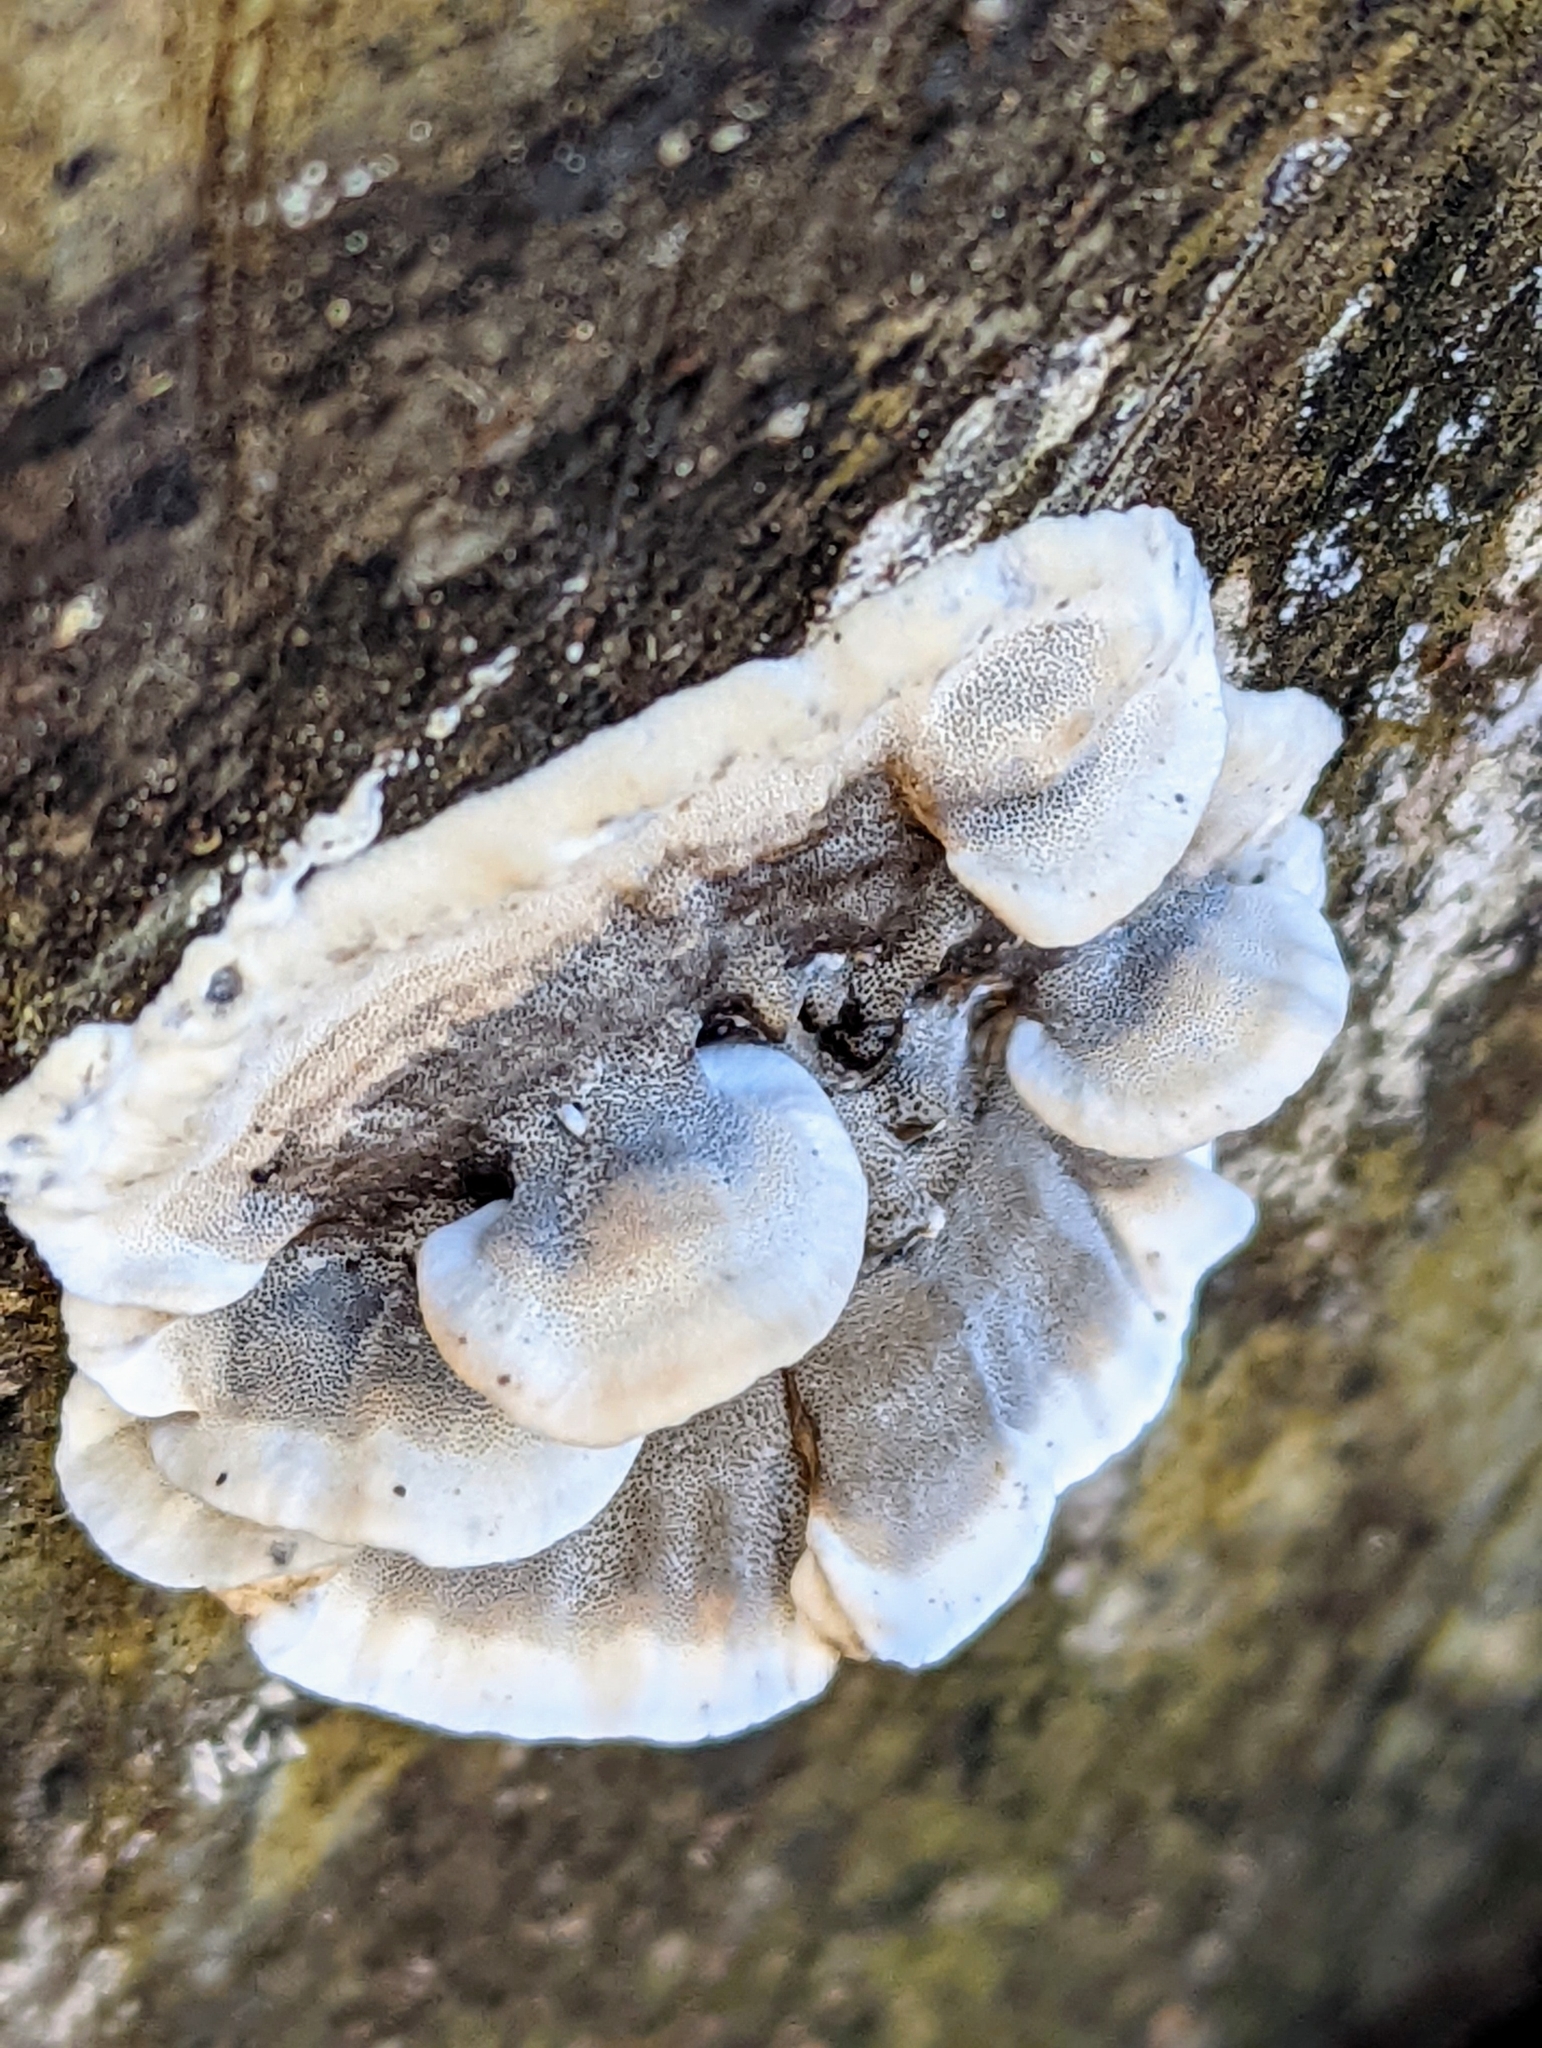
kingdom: Fungi
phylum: Basidiomycota
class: Agaricomycetes
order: Polyporales
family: Phanerochaetaceae
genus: Bjerkandera
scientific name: Bjerkandera adusta
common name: Smoky bracket
